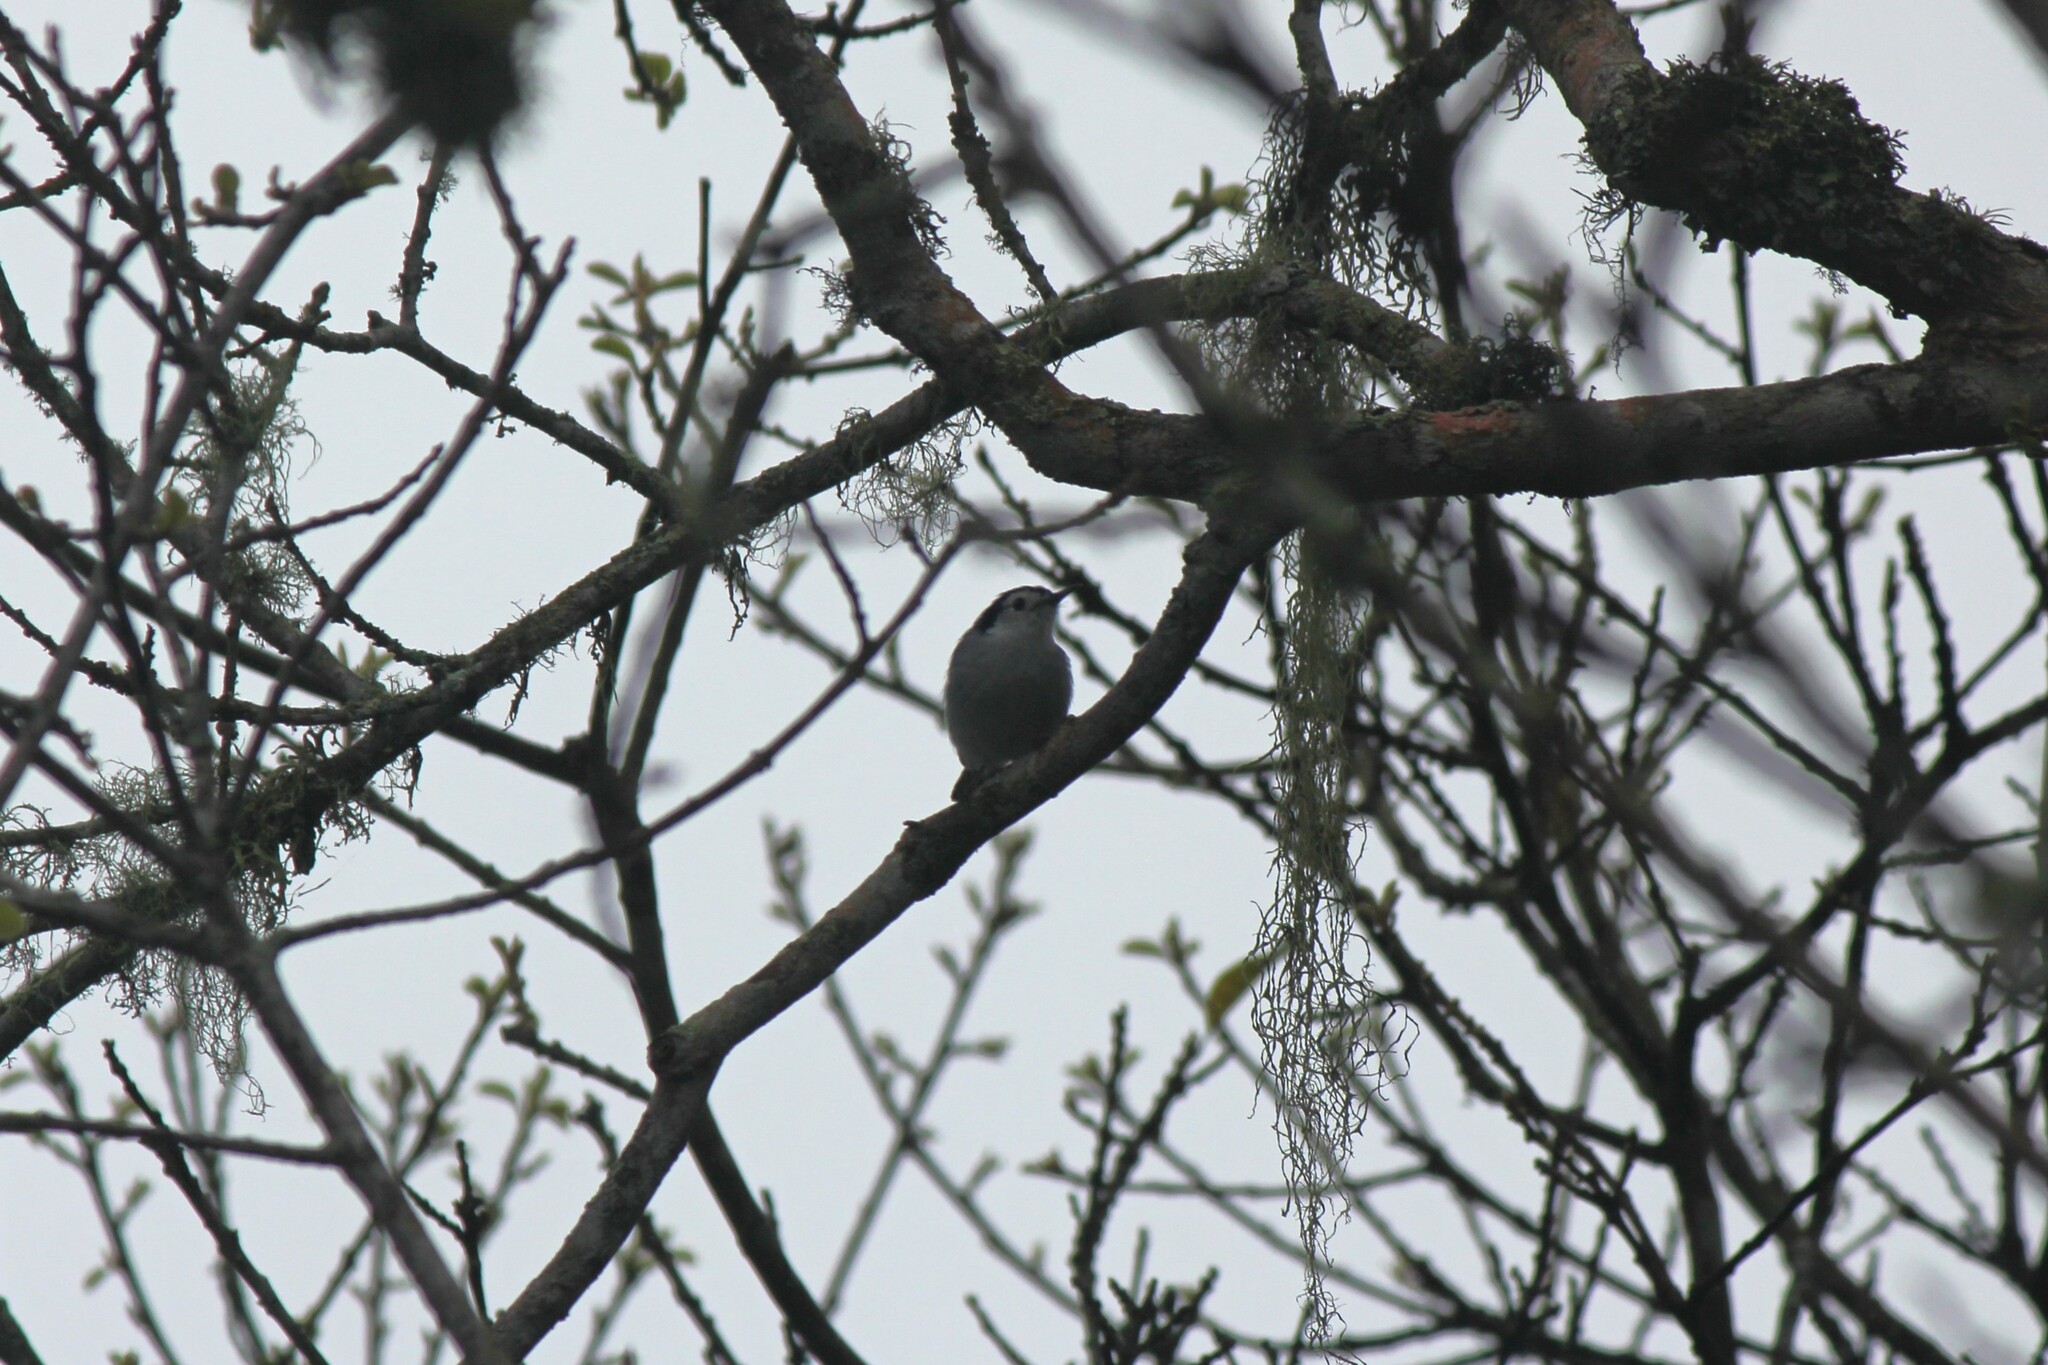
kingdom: Animalia
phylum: Chordata
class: Aves
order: Passeriformes
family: Polioptilidae
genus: Polioptila
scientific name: Polioptila plumbea
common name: Tropical gnatcatcher
